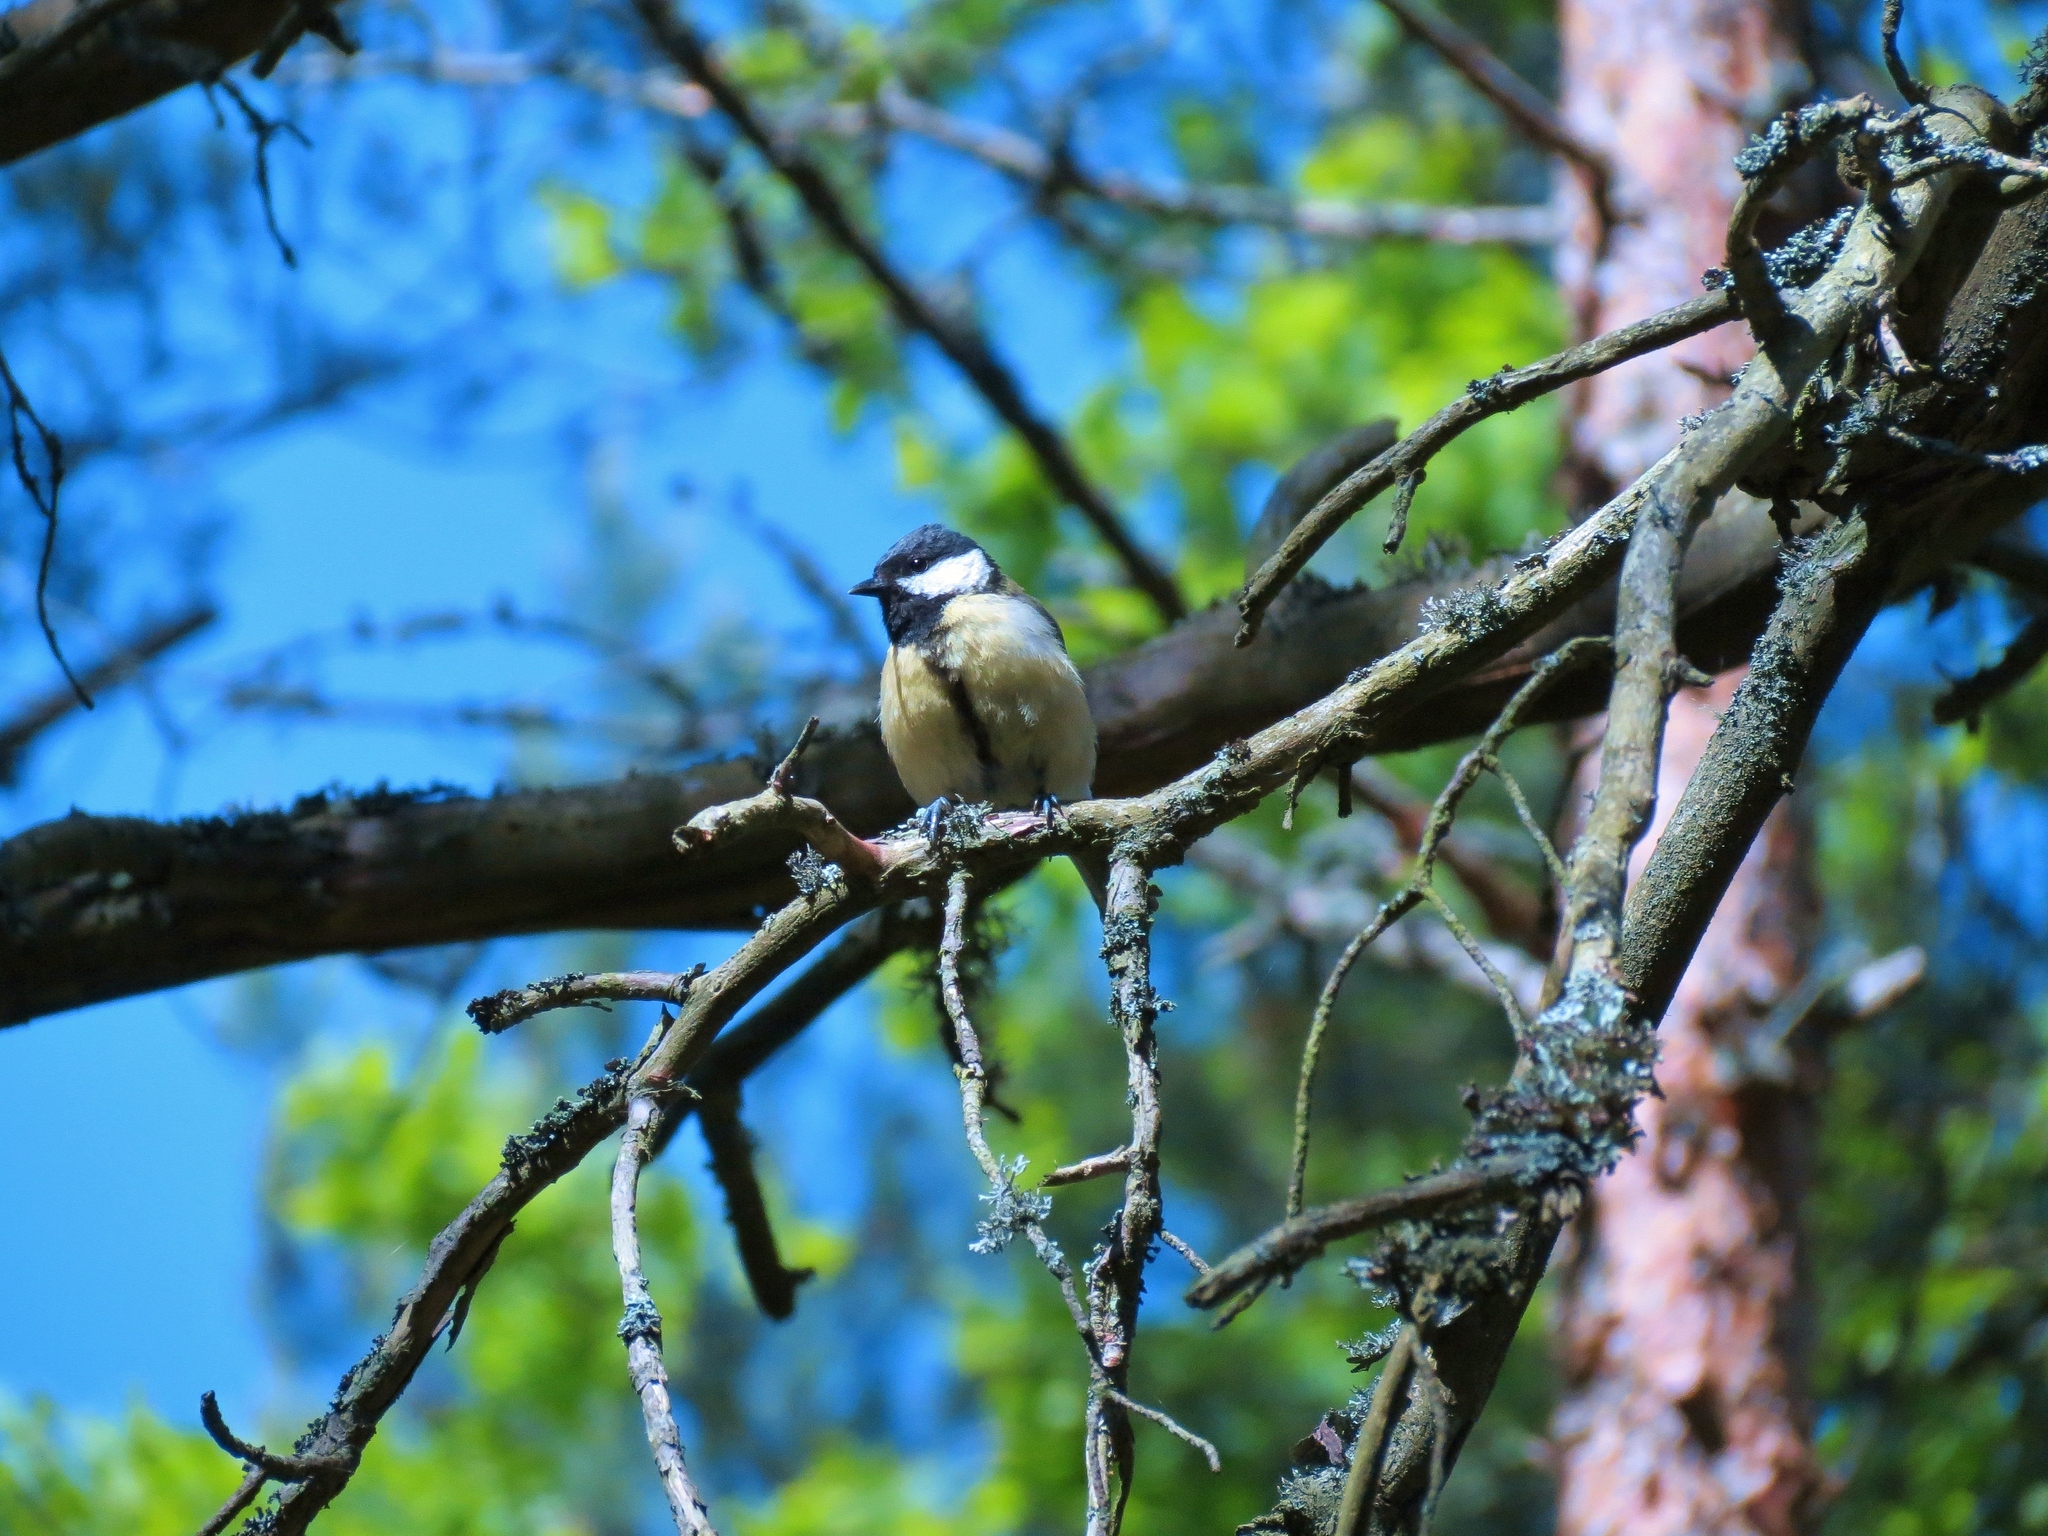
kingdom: Animalia
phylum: Chordata
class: Aves
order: Passeriformes
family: Paridae
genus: Parus
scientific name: Parus major
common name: Great tit
